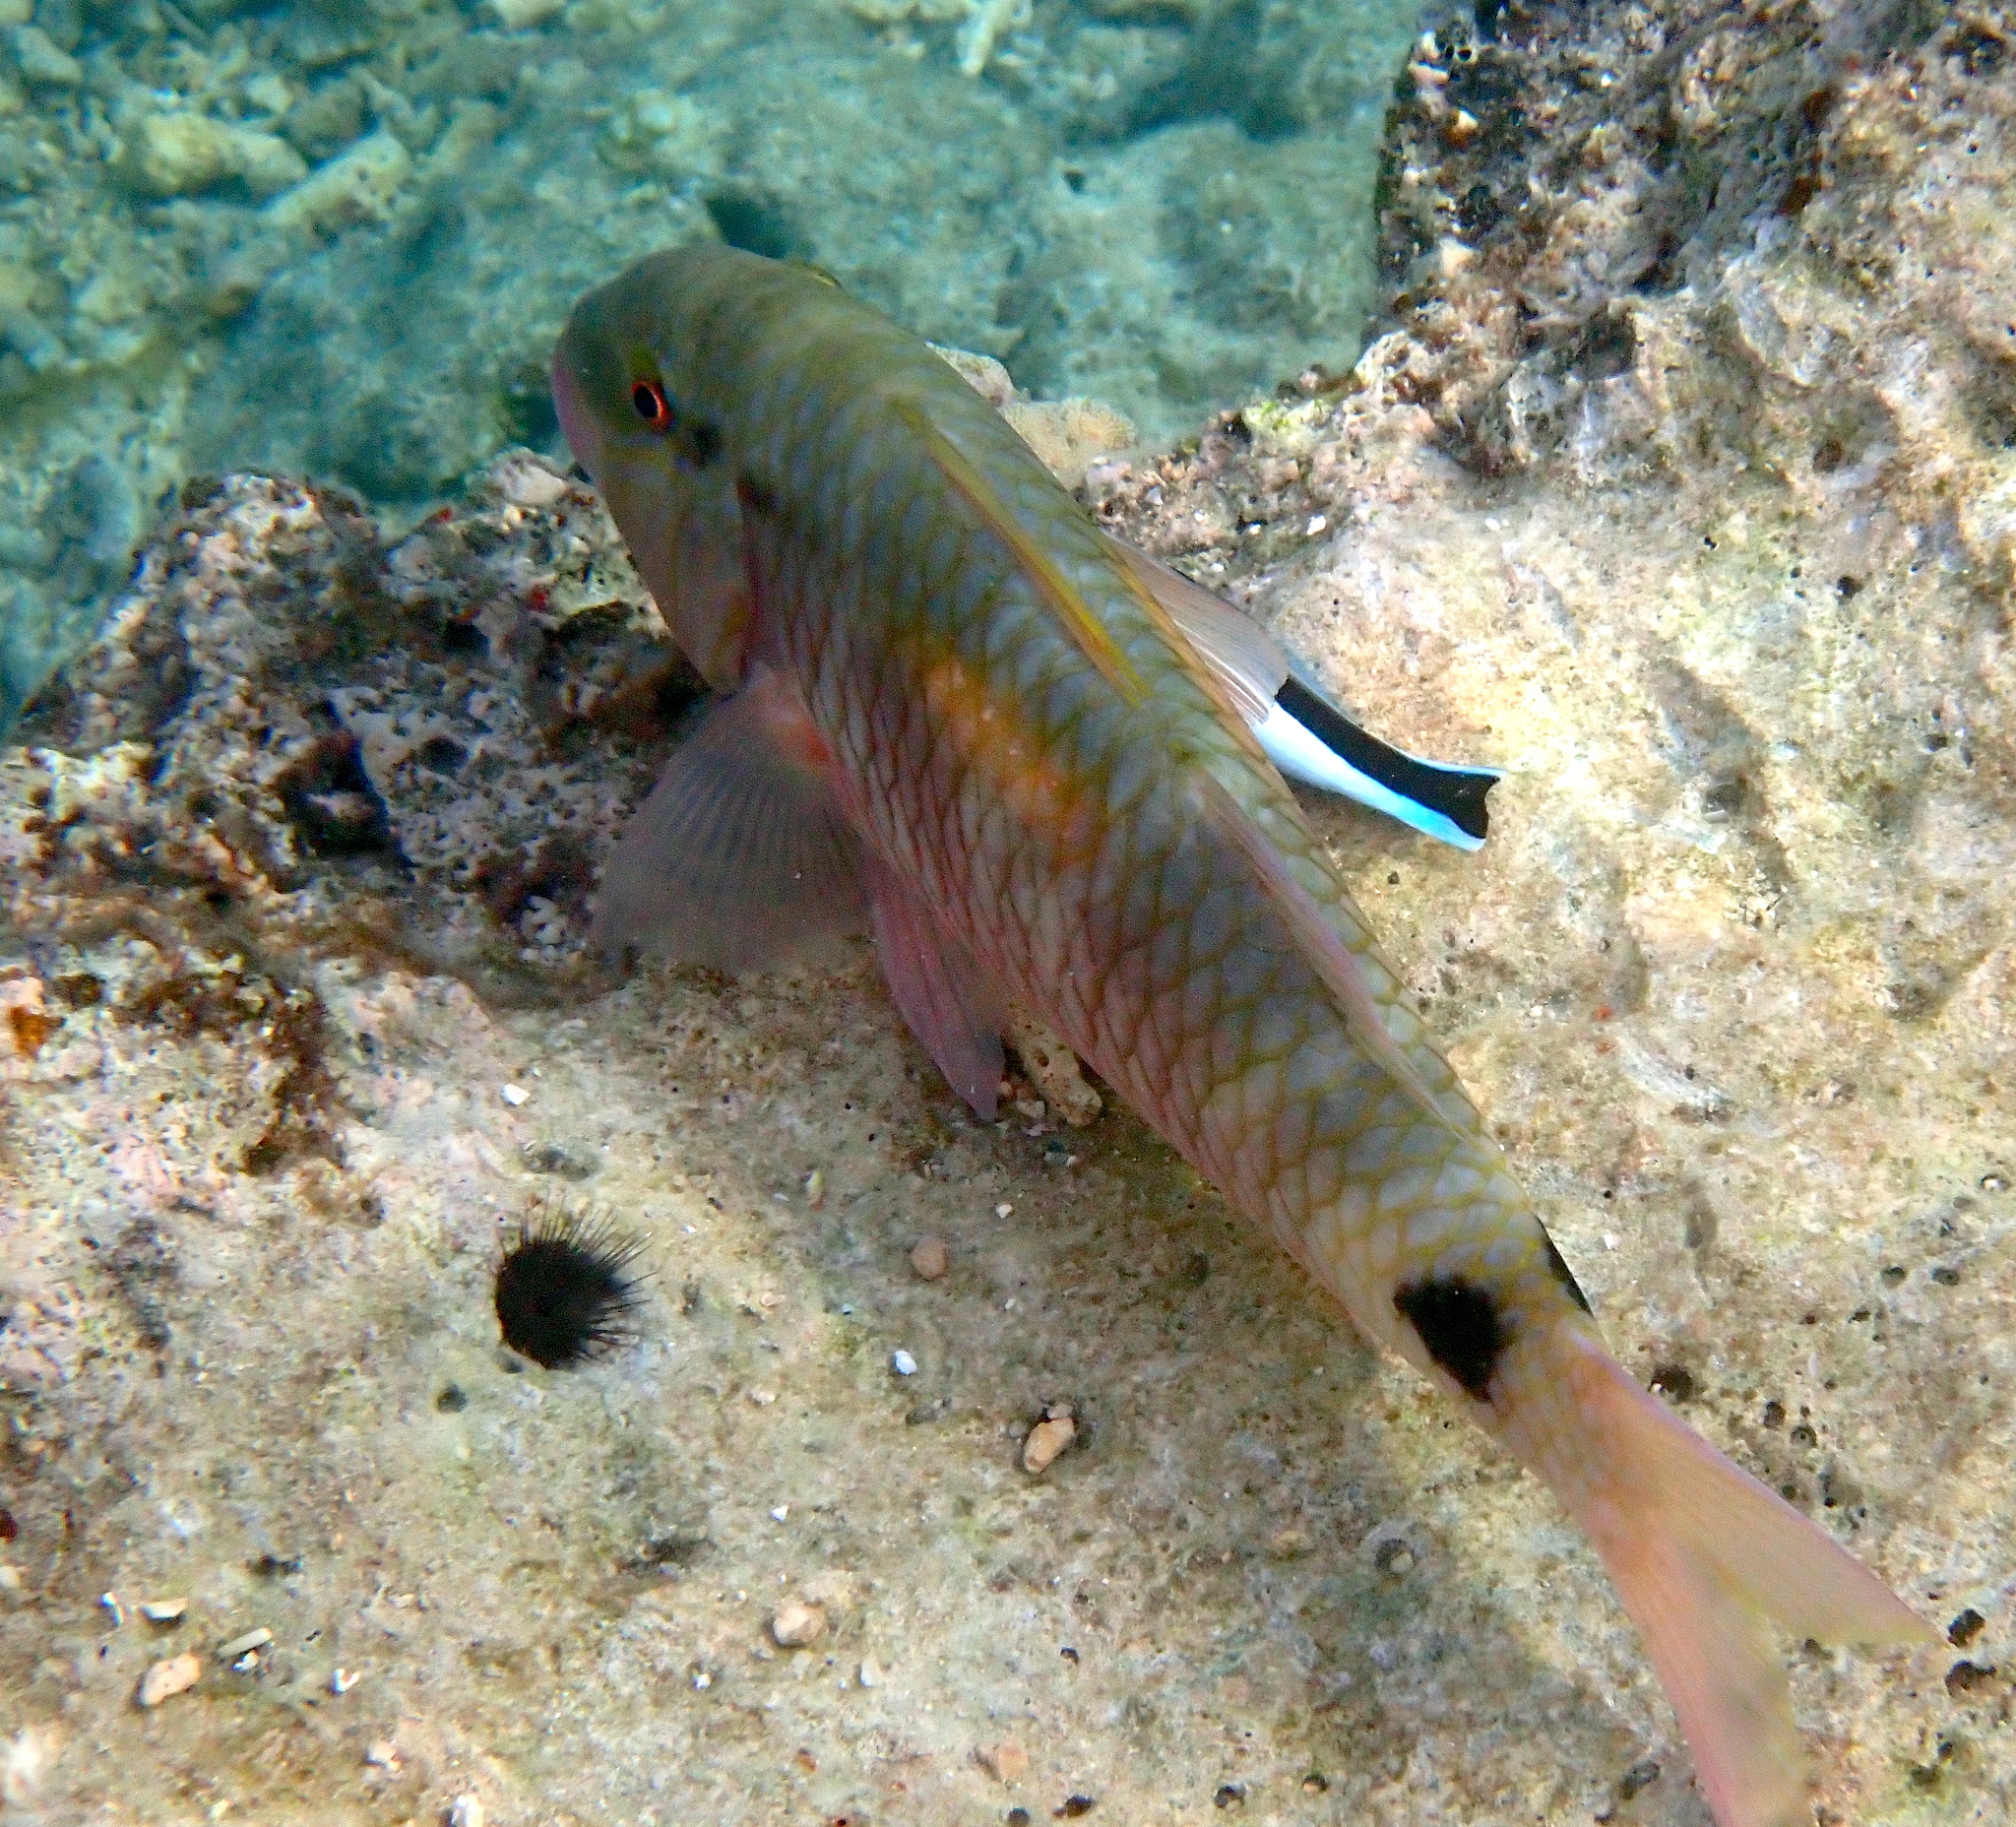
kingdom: Animalia
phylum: Chordata
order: Perciformes
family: Labridae
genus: Labroides
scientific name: Labroides dimidiatus
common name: Blue diesel wrasse
